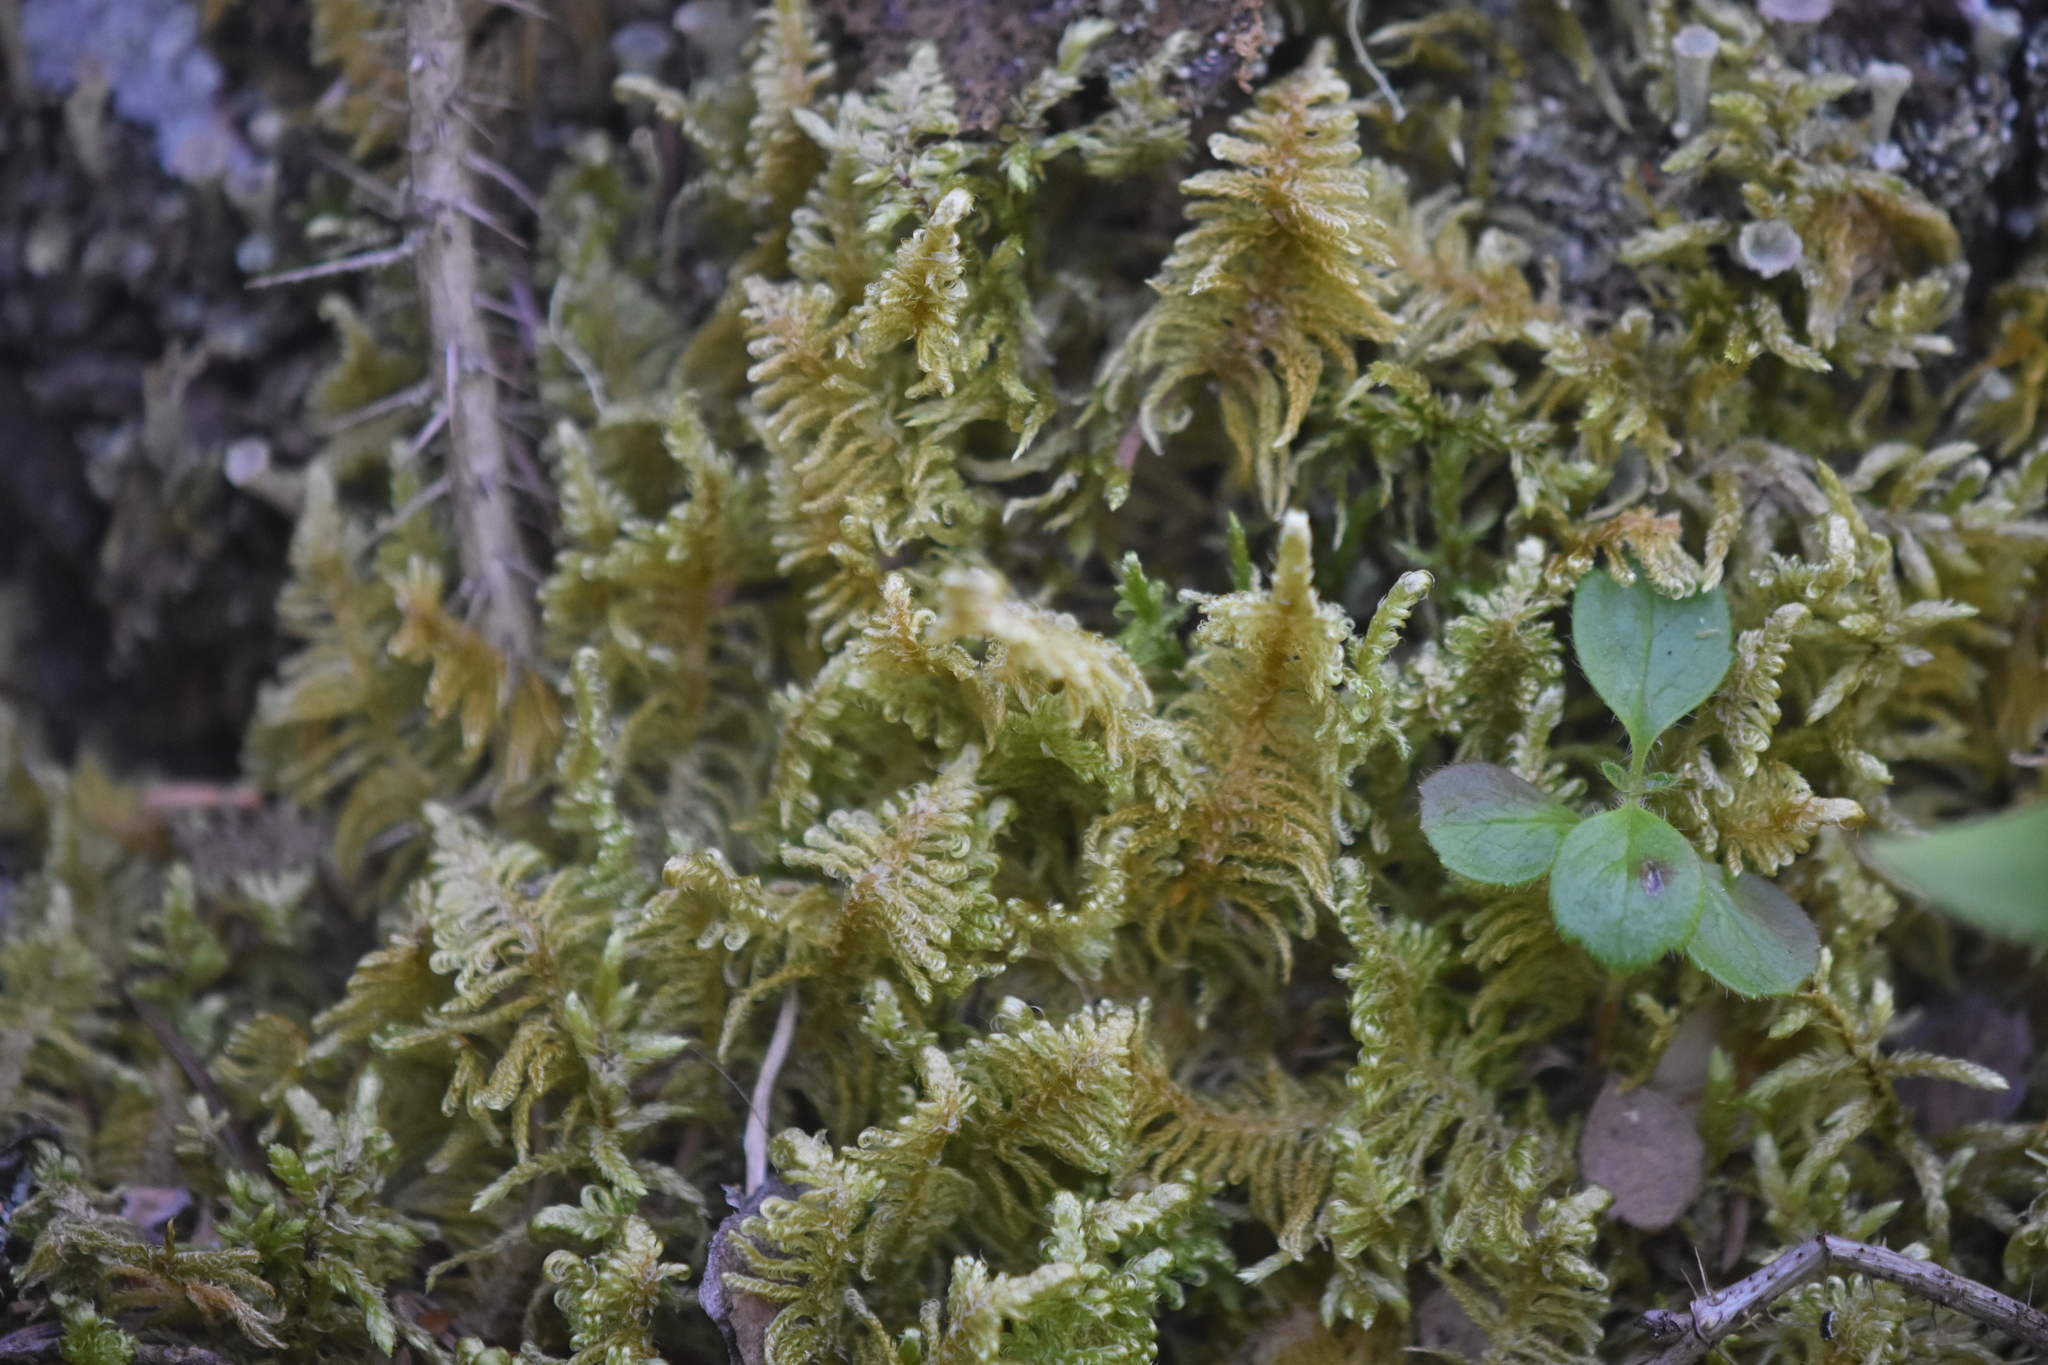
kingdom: Plantae
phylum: Bryophyta
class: Bryopsida
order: Hypnales
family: Pylaisiaceae
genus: Ptilium
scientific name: Ptilium crista-castrensis
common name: Knight's plume moss
